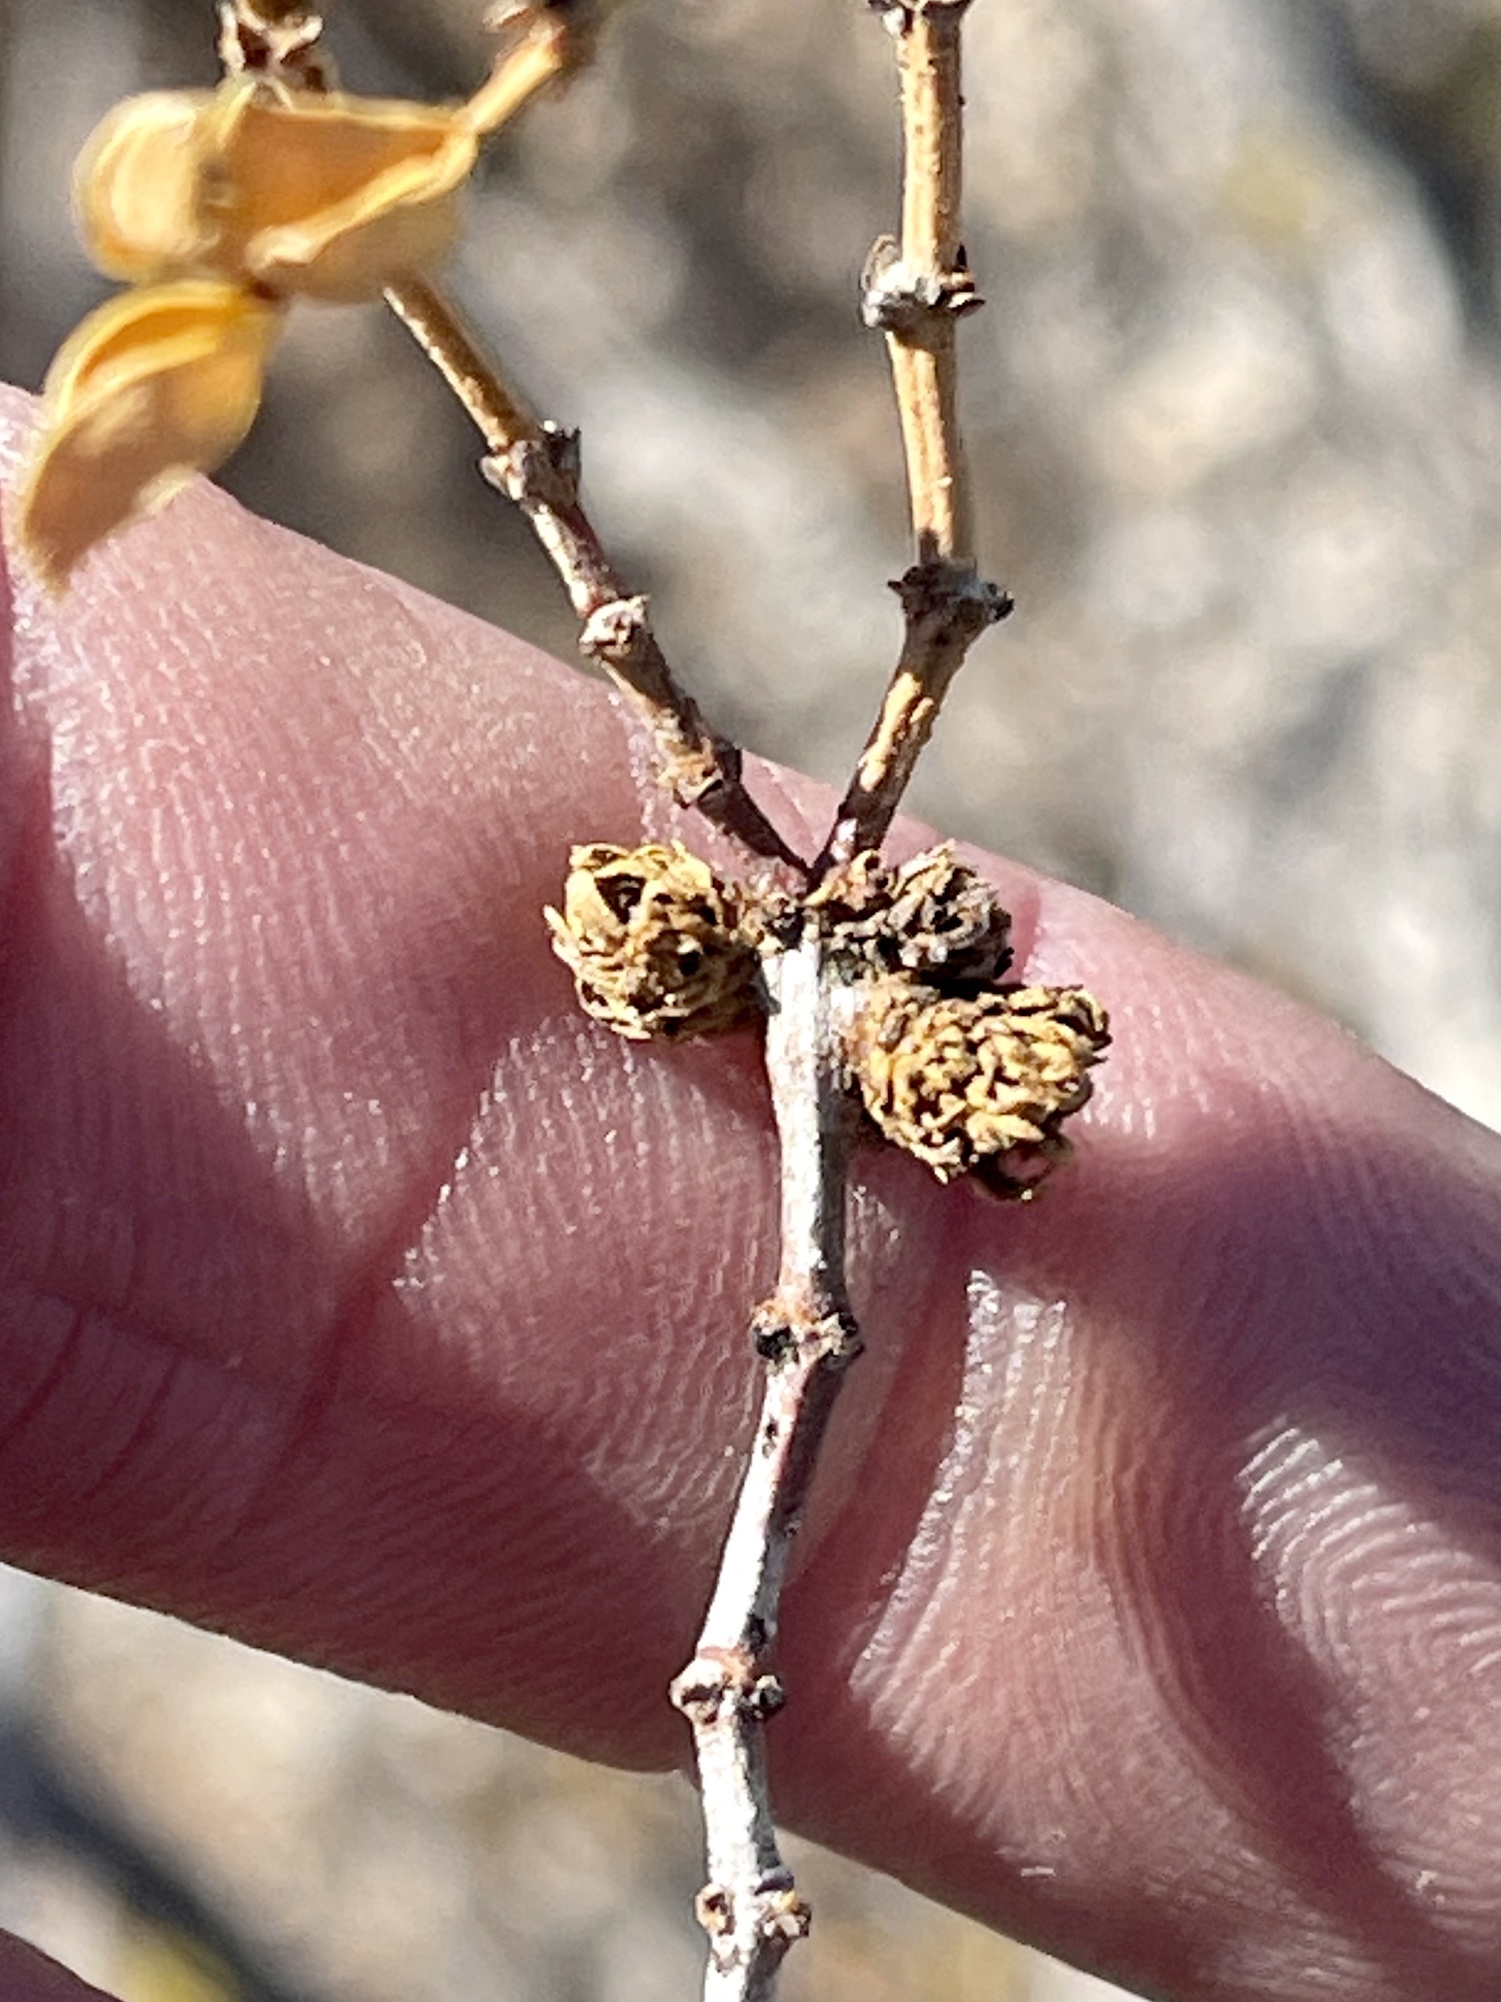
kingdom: Animalia
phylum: Arthropoda
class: Insecta
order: Diptera
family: Cecidomyiidae
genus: Asphondylia
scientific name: Asphondylia rosetta
